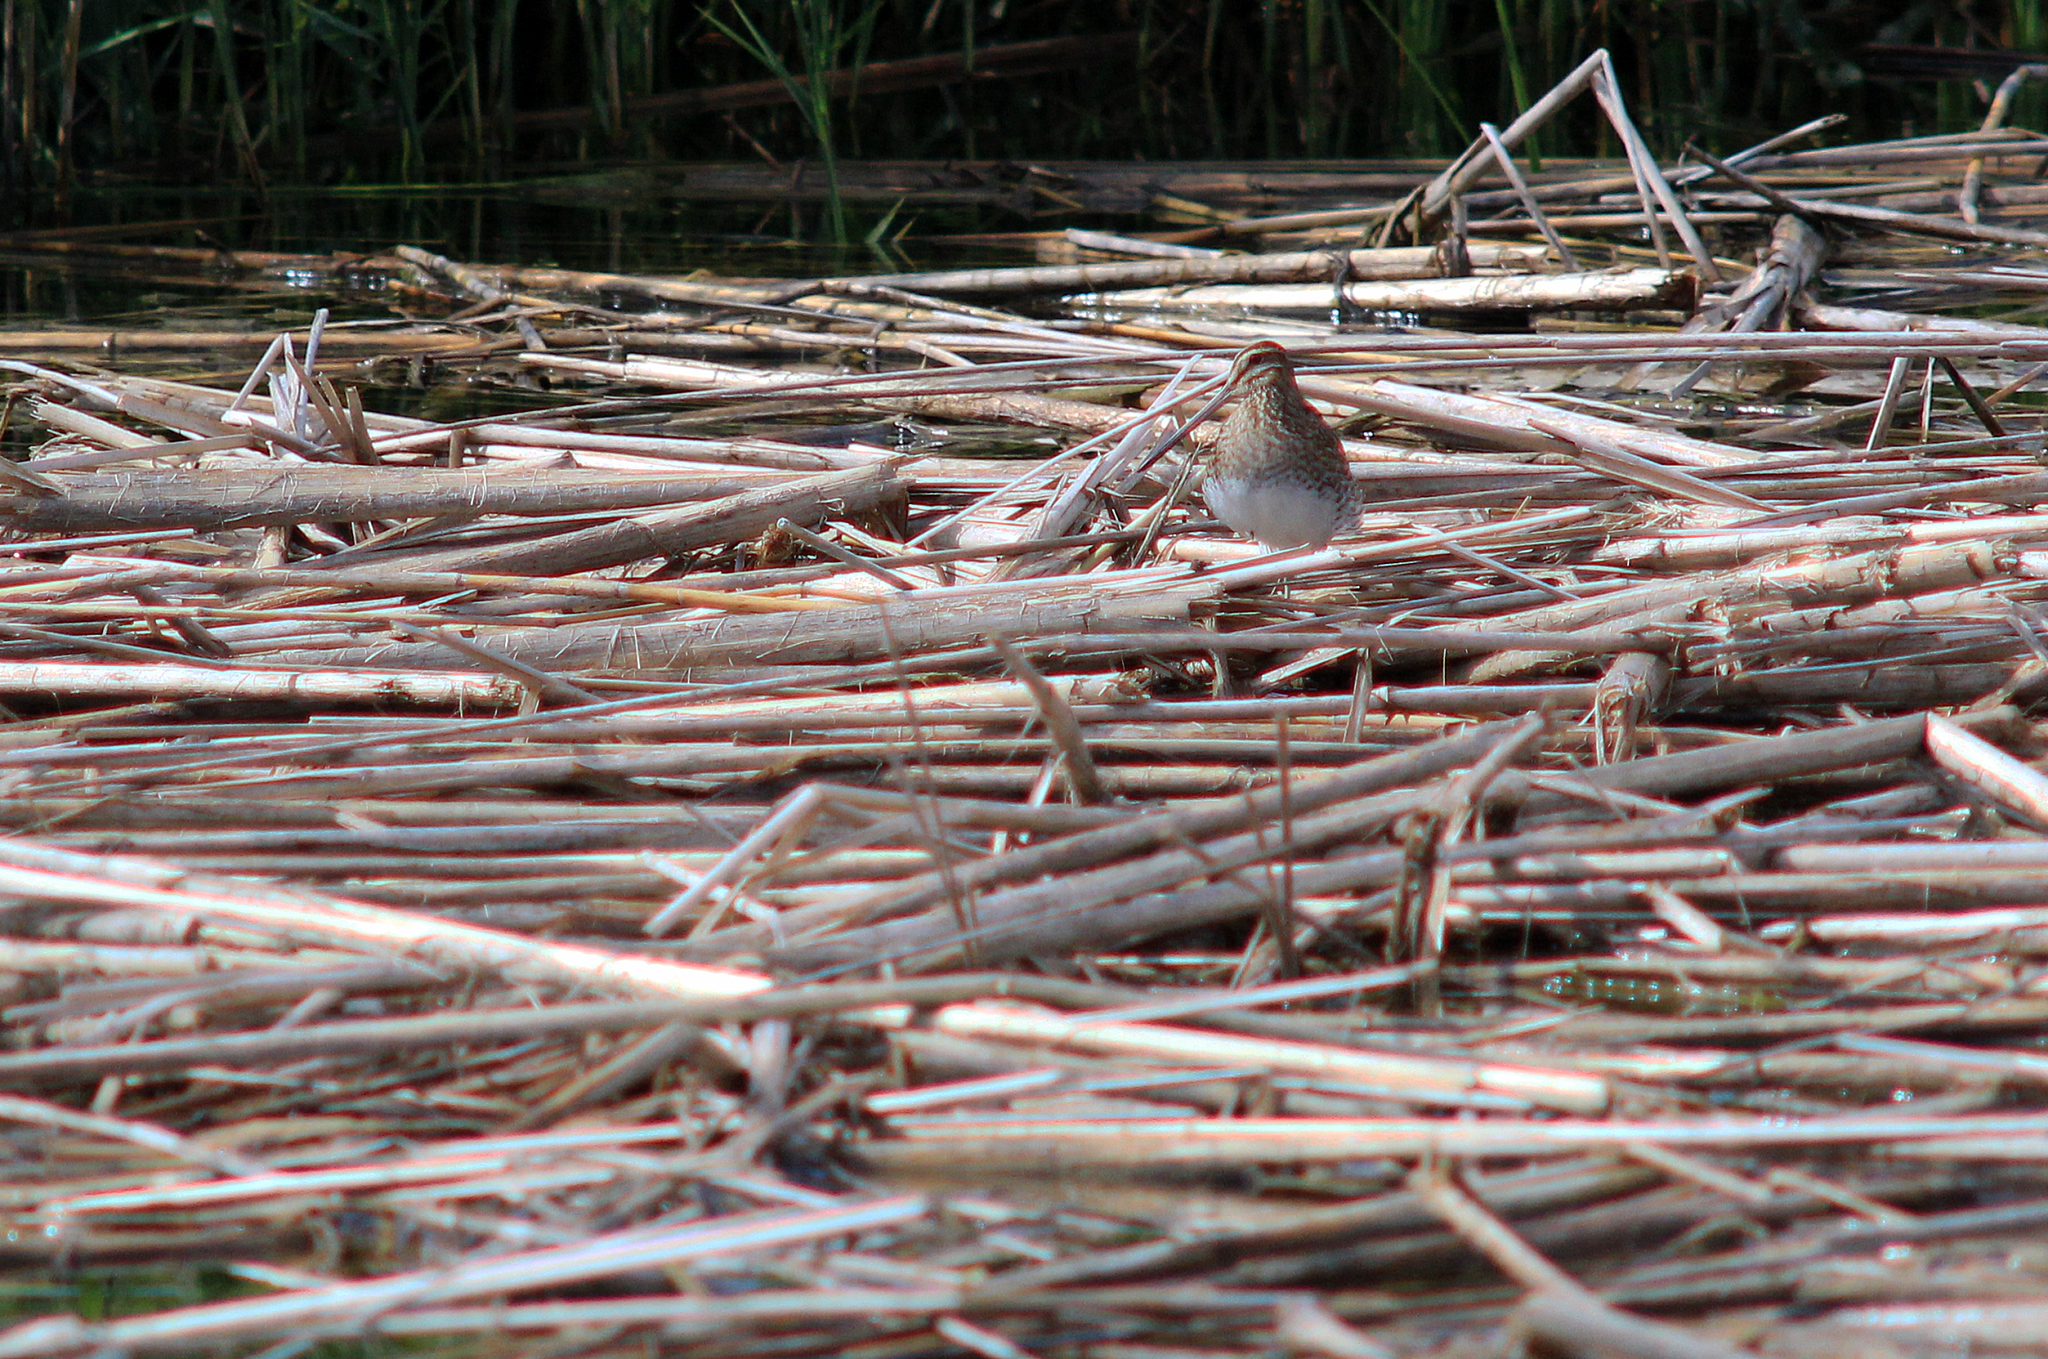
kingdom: Animalia
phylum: Chordata
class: Aves
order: Charadriiformes
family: Scolopacidae
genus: Gallinago
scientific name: Gallinago gallinago
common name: Common snipe
